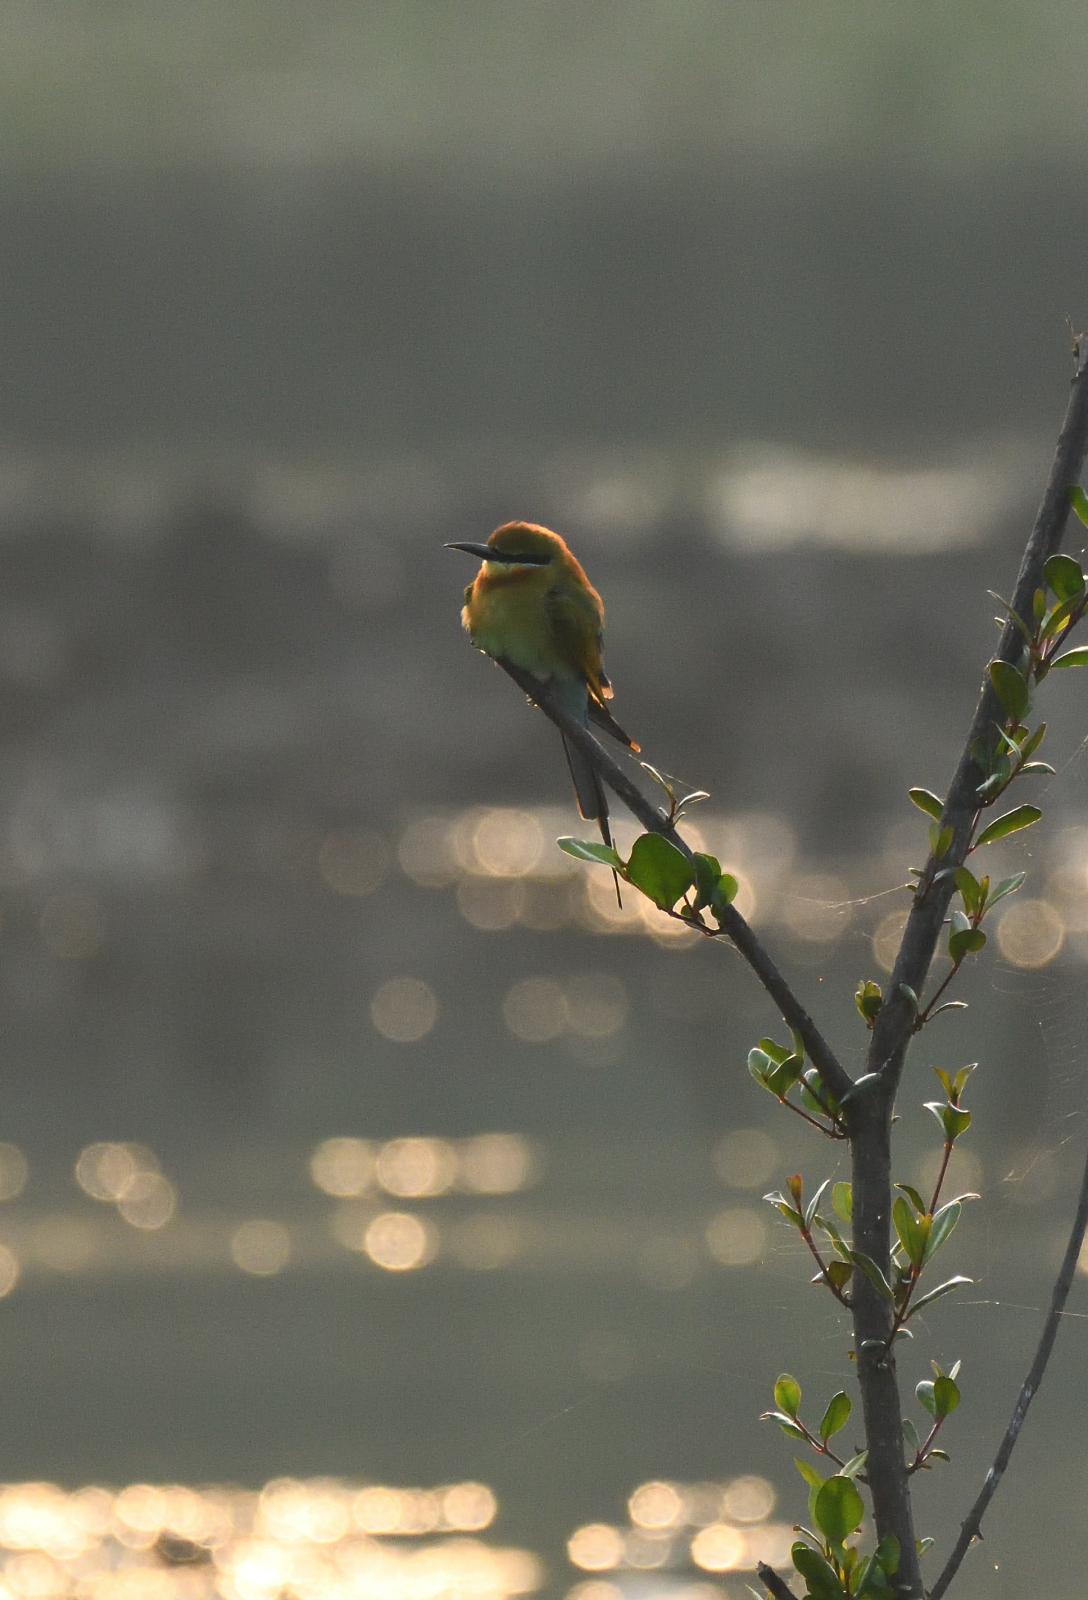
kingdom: Animalia
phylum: Chordata
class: Aves
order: Coraciiformes
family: Meropidae
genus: Merops
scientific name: Merops orientalis
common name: Green bee-eater
